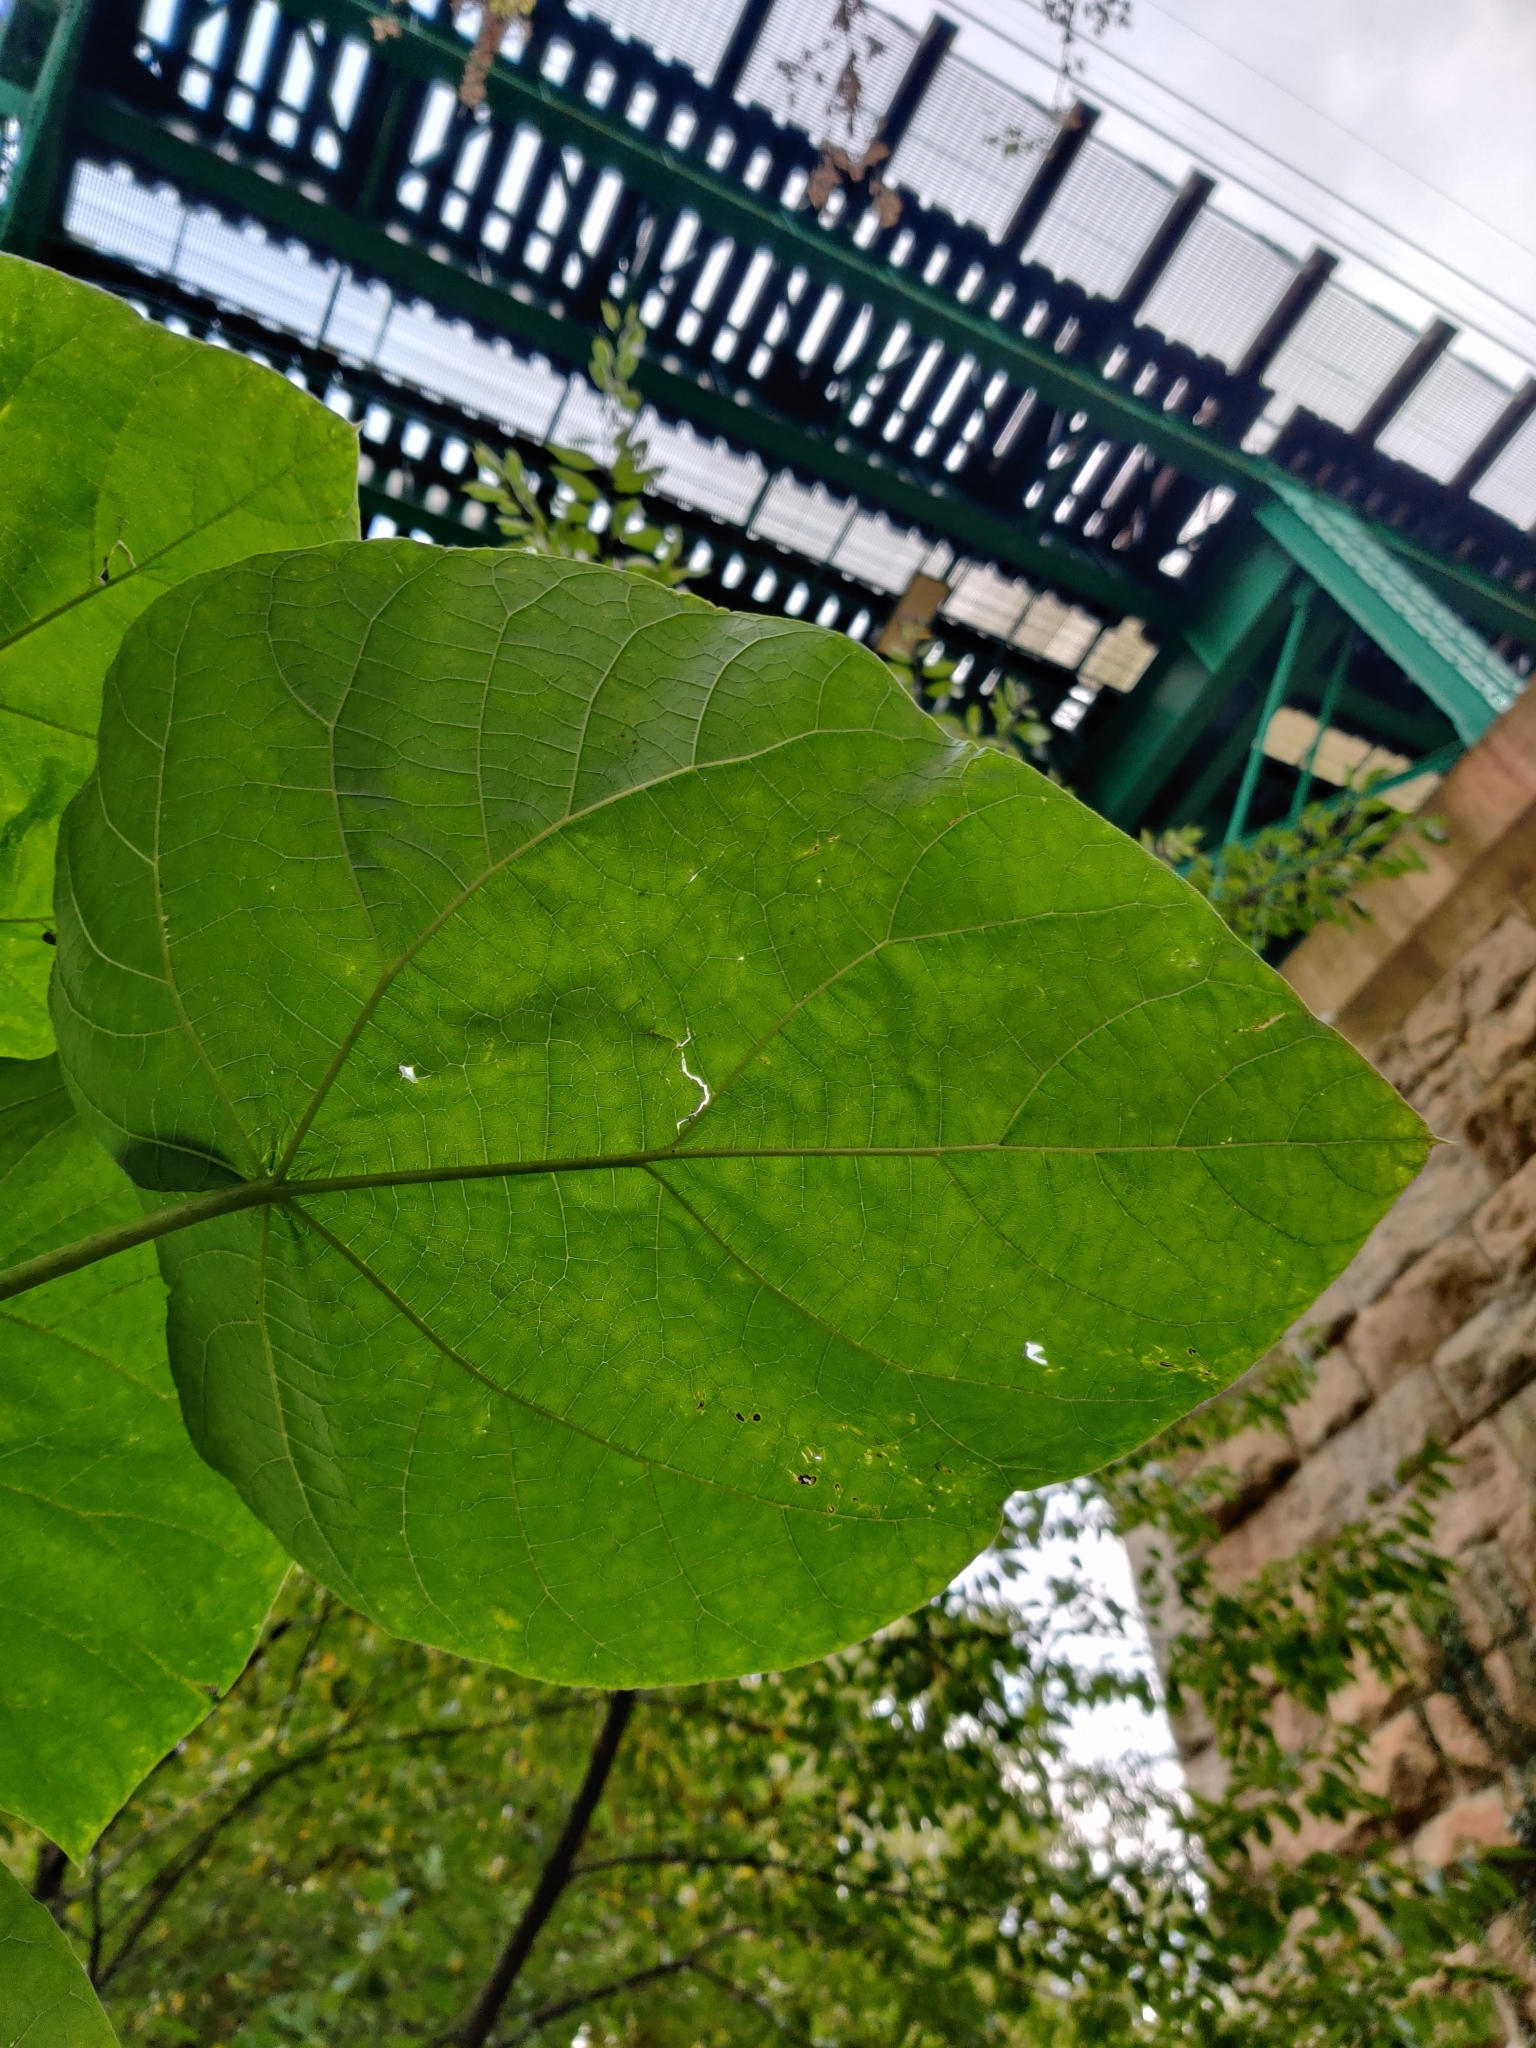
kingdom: Plantae
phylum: Tracheophyta
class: Magnoliopsida
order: Lamiales
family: Paulowniaceae
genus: Paulownia
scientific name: Paulownia tomentosa
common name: Foxglove-tree
